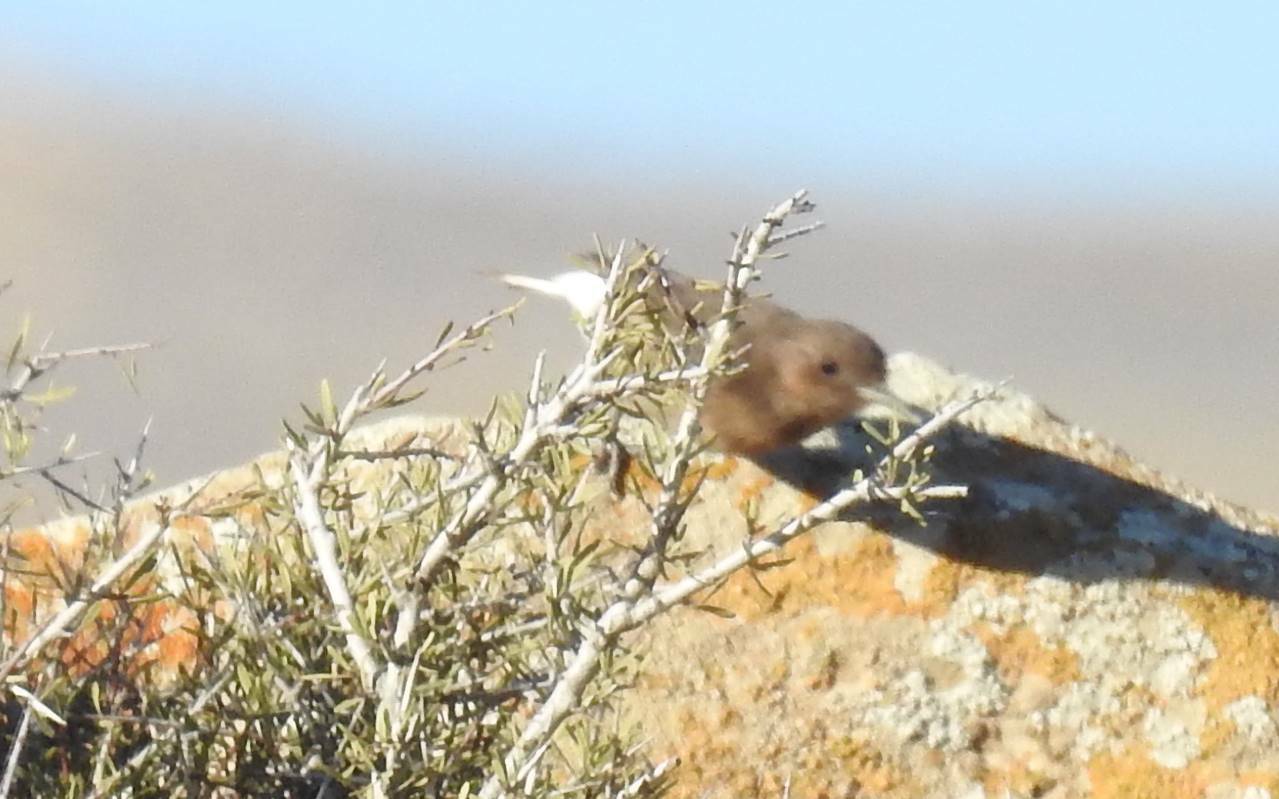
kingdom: Animalia
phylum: Chordata
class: Aves
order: Passeriformes
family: Muscicapidae
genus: Oenanthe
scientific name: Oenanthe leucura
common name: Black wheatear
